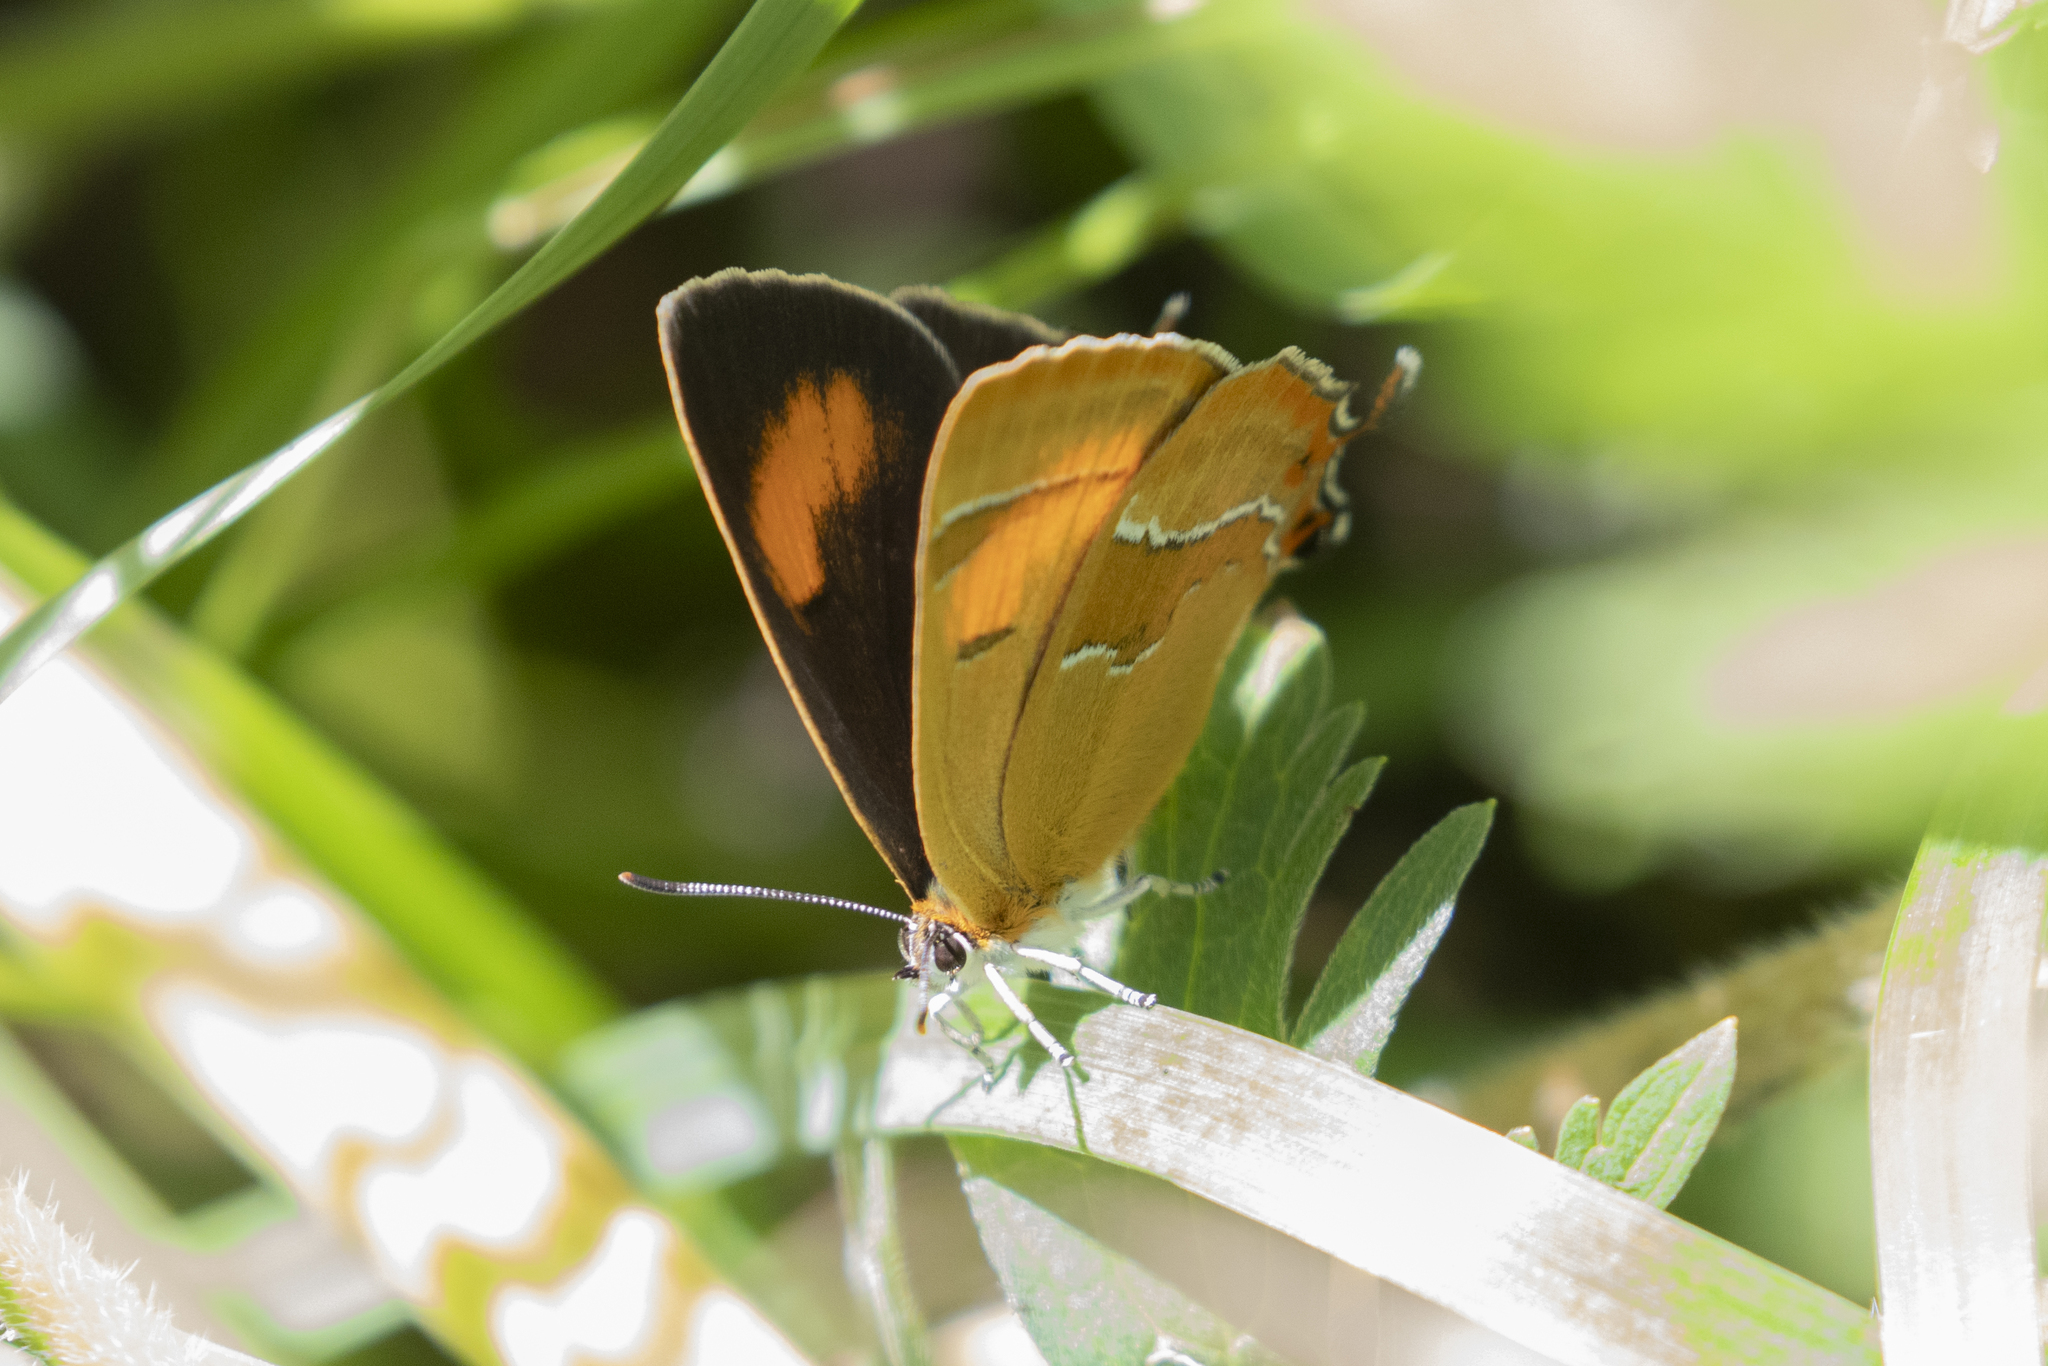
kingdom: Animalia
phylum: Arthropoda
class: Insecta
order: Lepidoptera
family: Lycaenidae
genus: Thecla
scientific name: Thecla betulae
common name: Brown hairstreak
